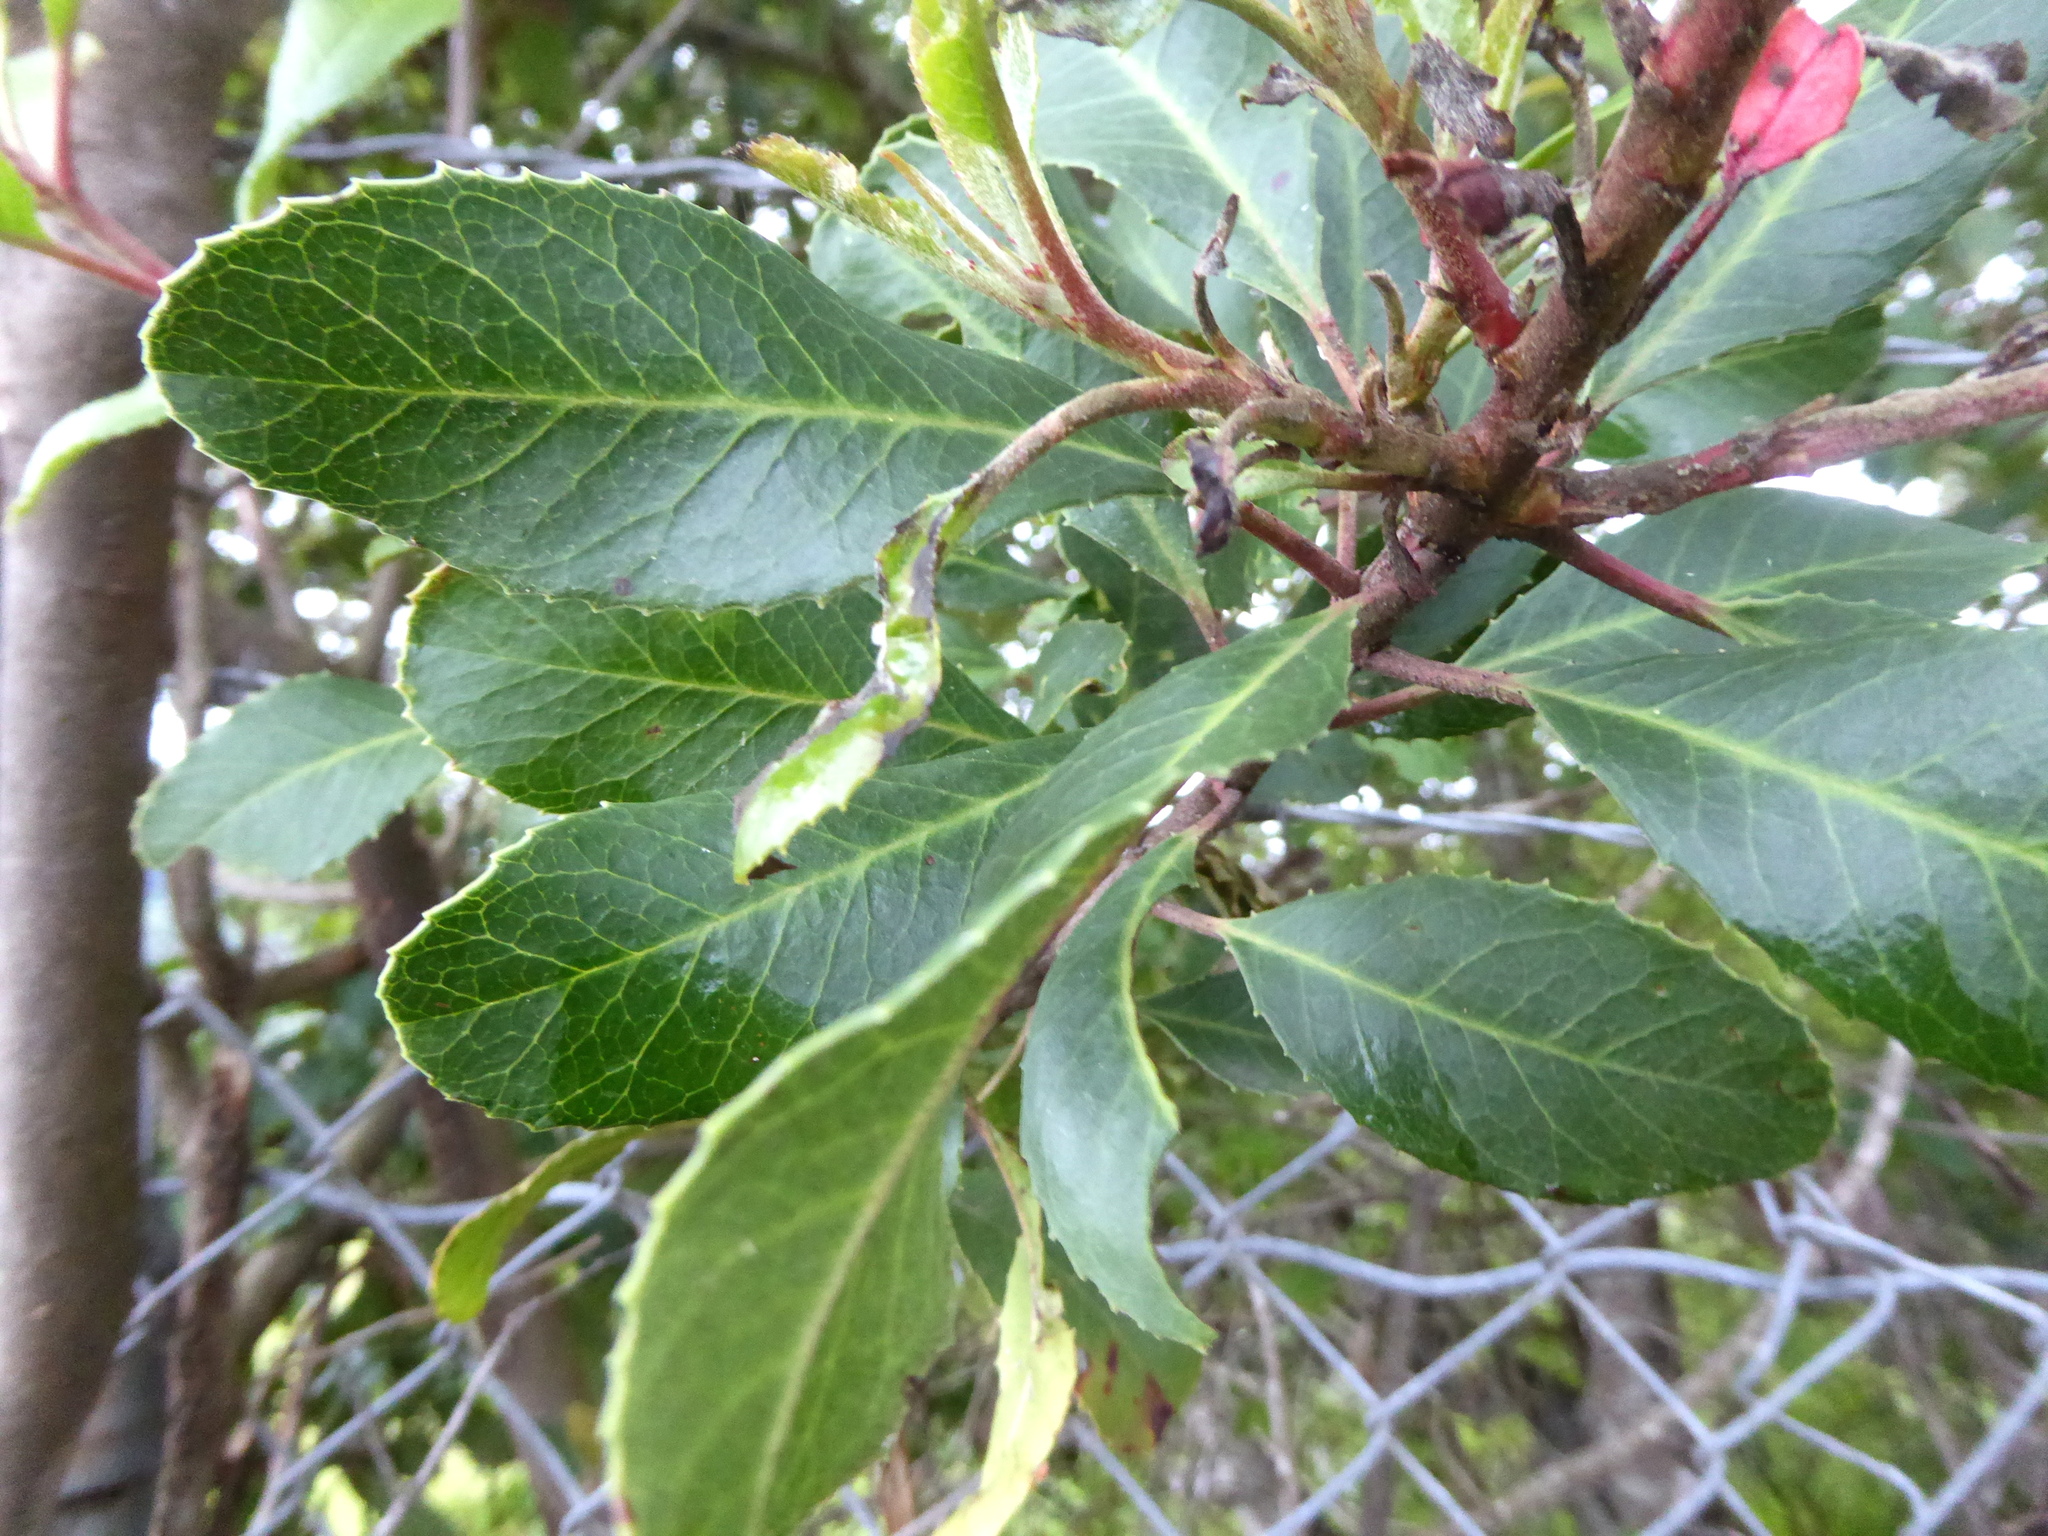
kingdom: Plantae
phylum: Tracheophyta
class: Magnoliopsida
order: Rosales
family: Rosaceae
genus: Heteromeles
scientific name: Heteromeles arbutifolia
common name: California-holly
